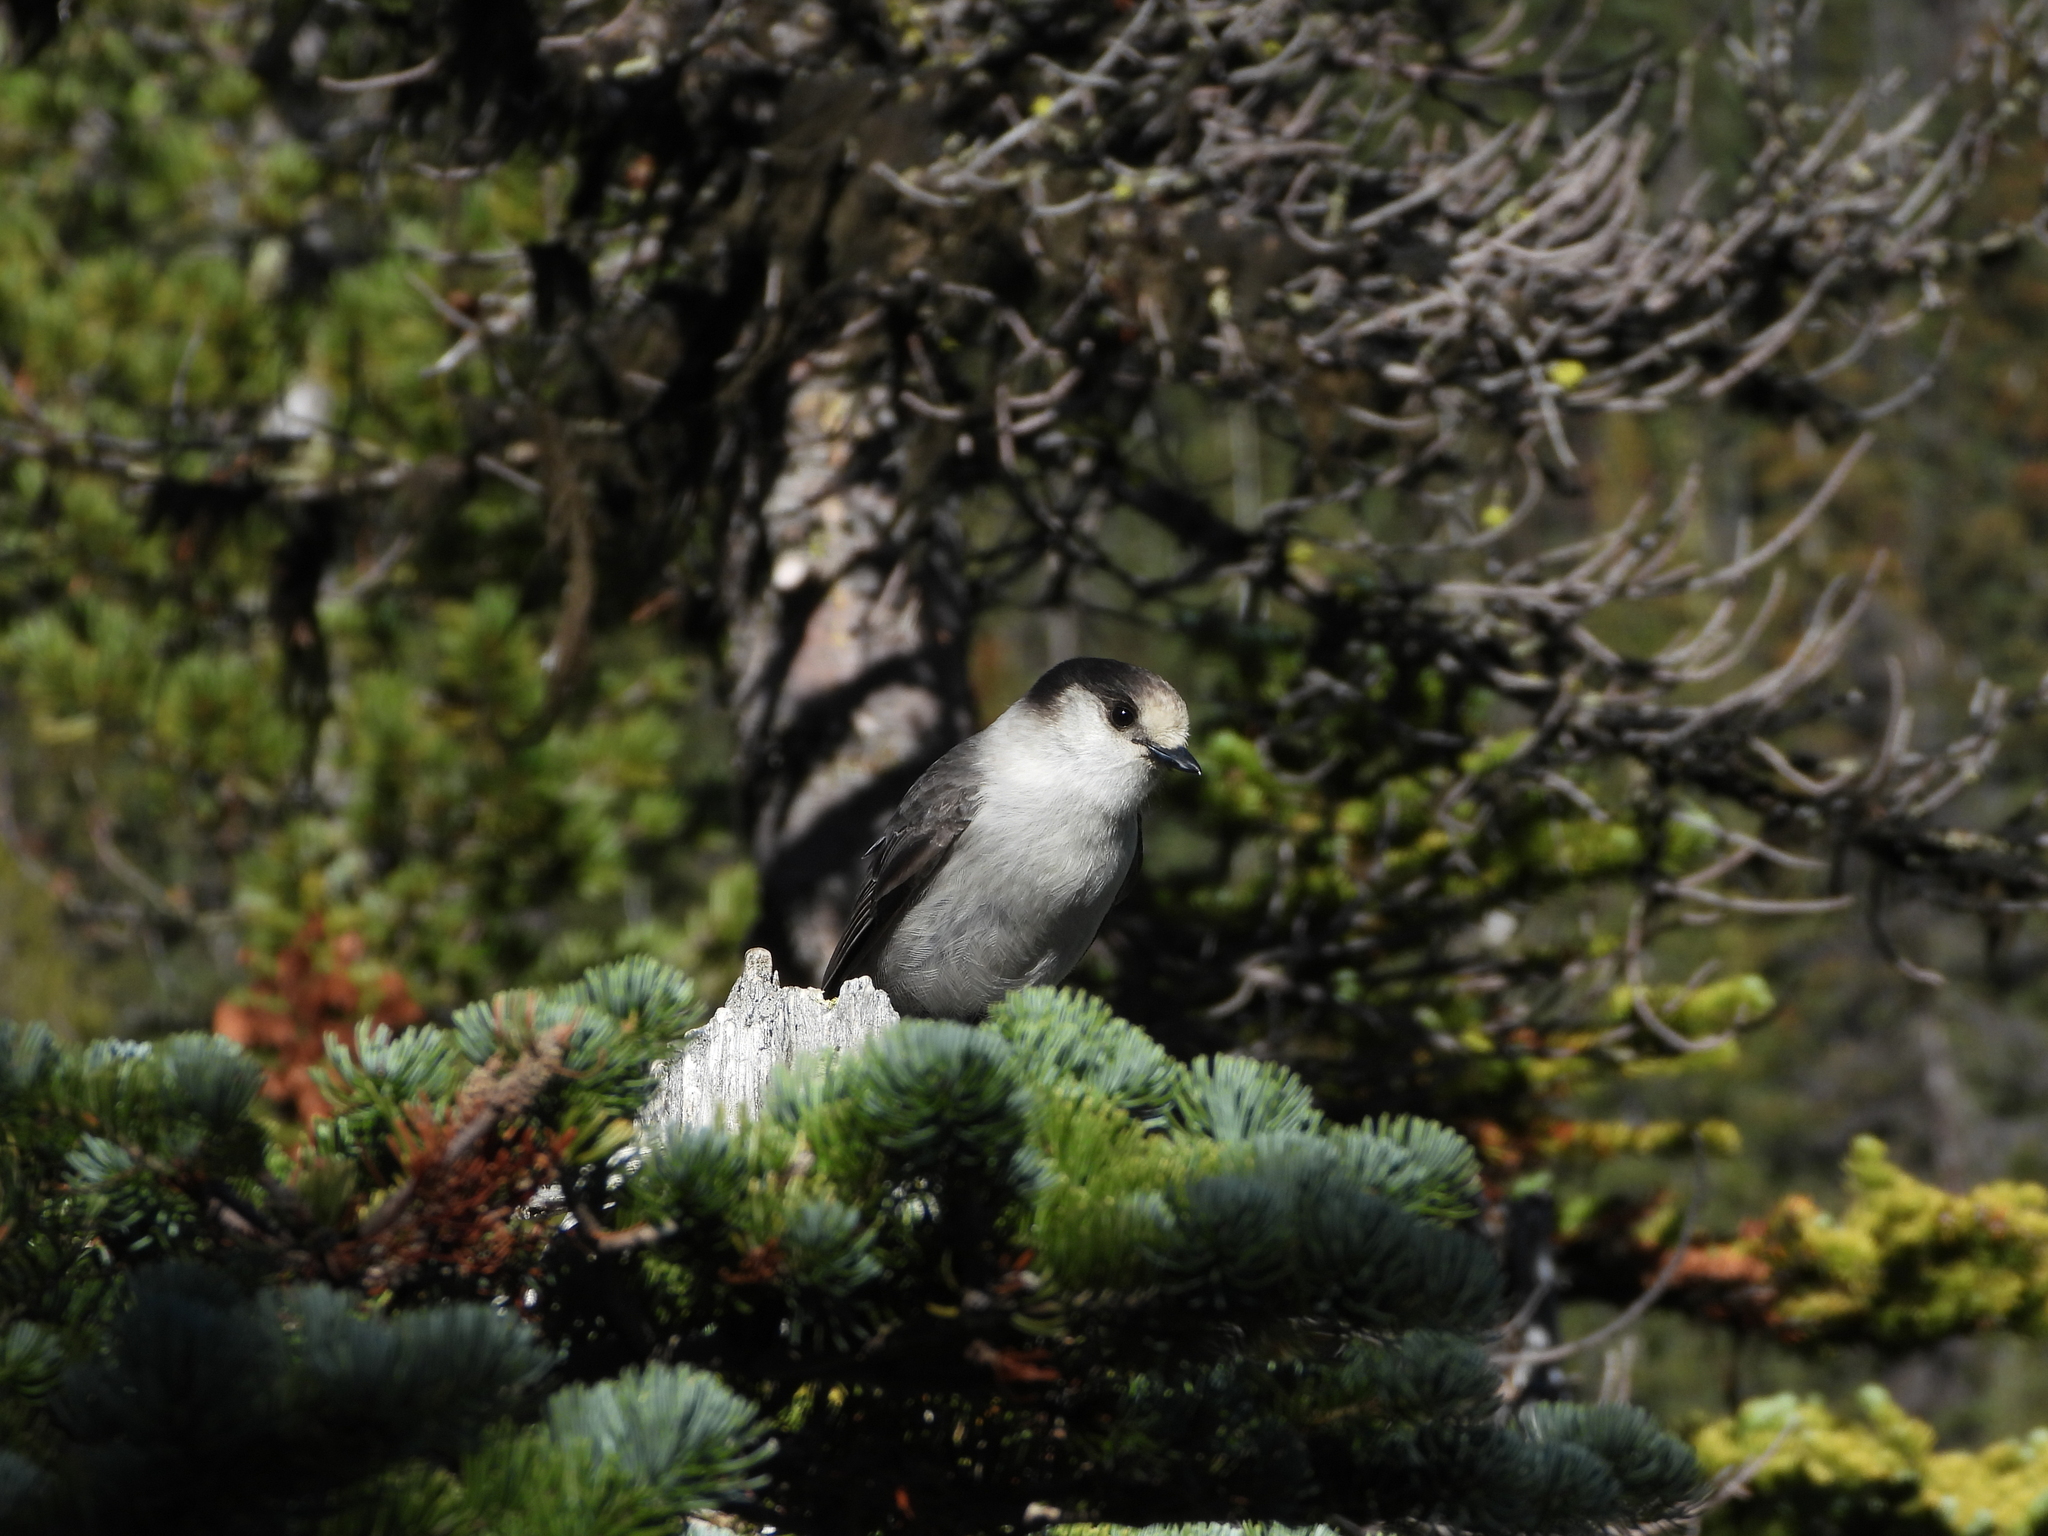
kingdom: Animalia
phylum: Chordata
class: Aves
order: Passeriformes
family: Corvidae
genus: Perisoreus
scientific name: Perisoreus canadensis
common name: Gray jay
